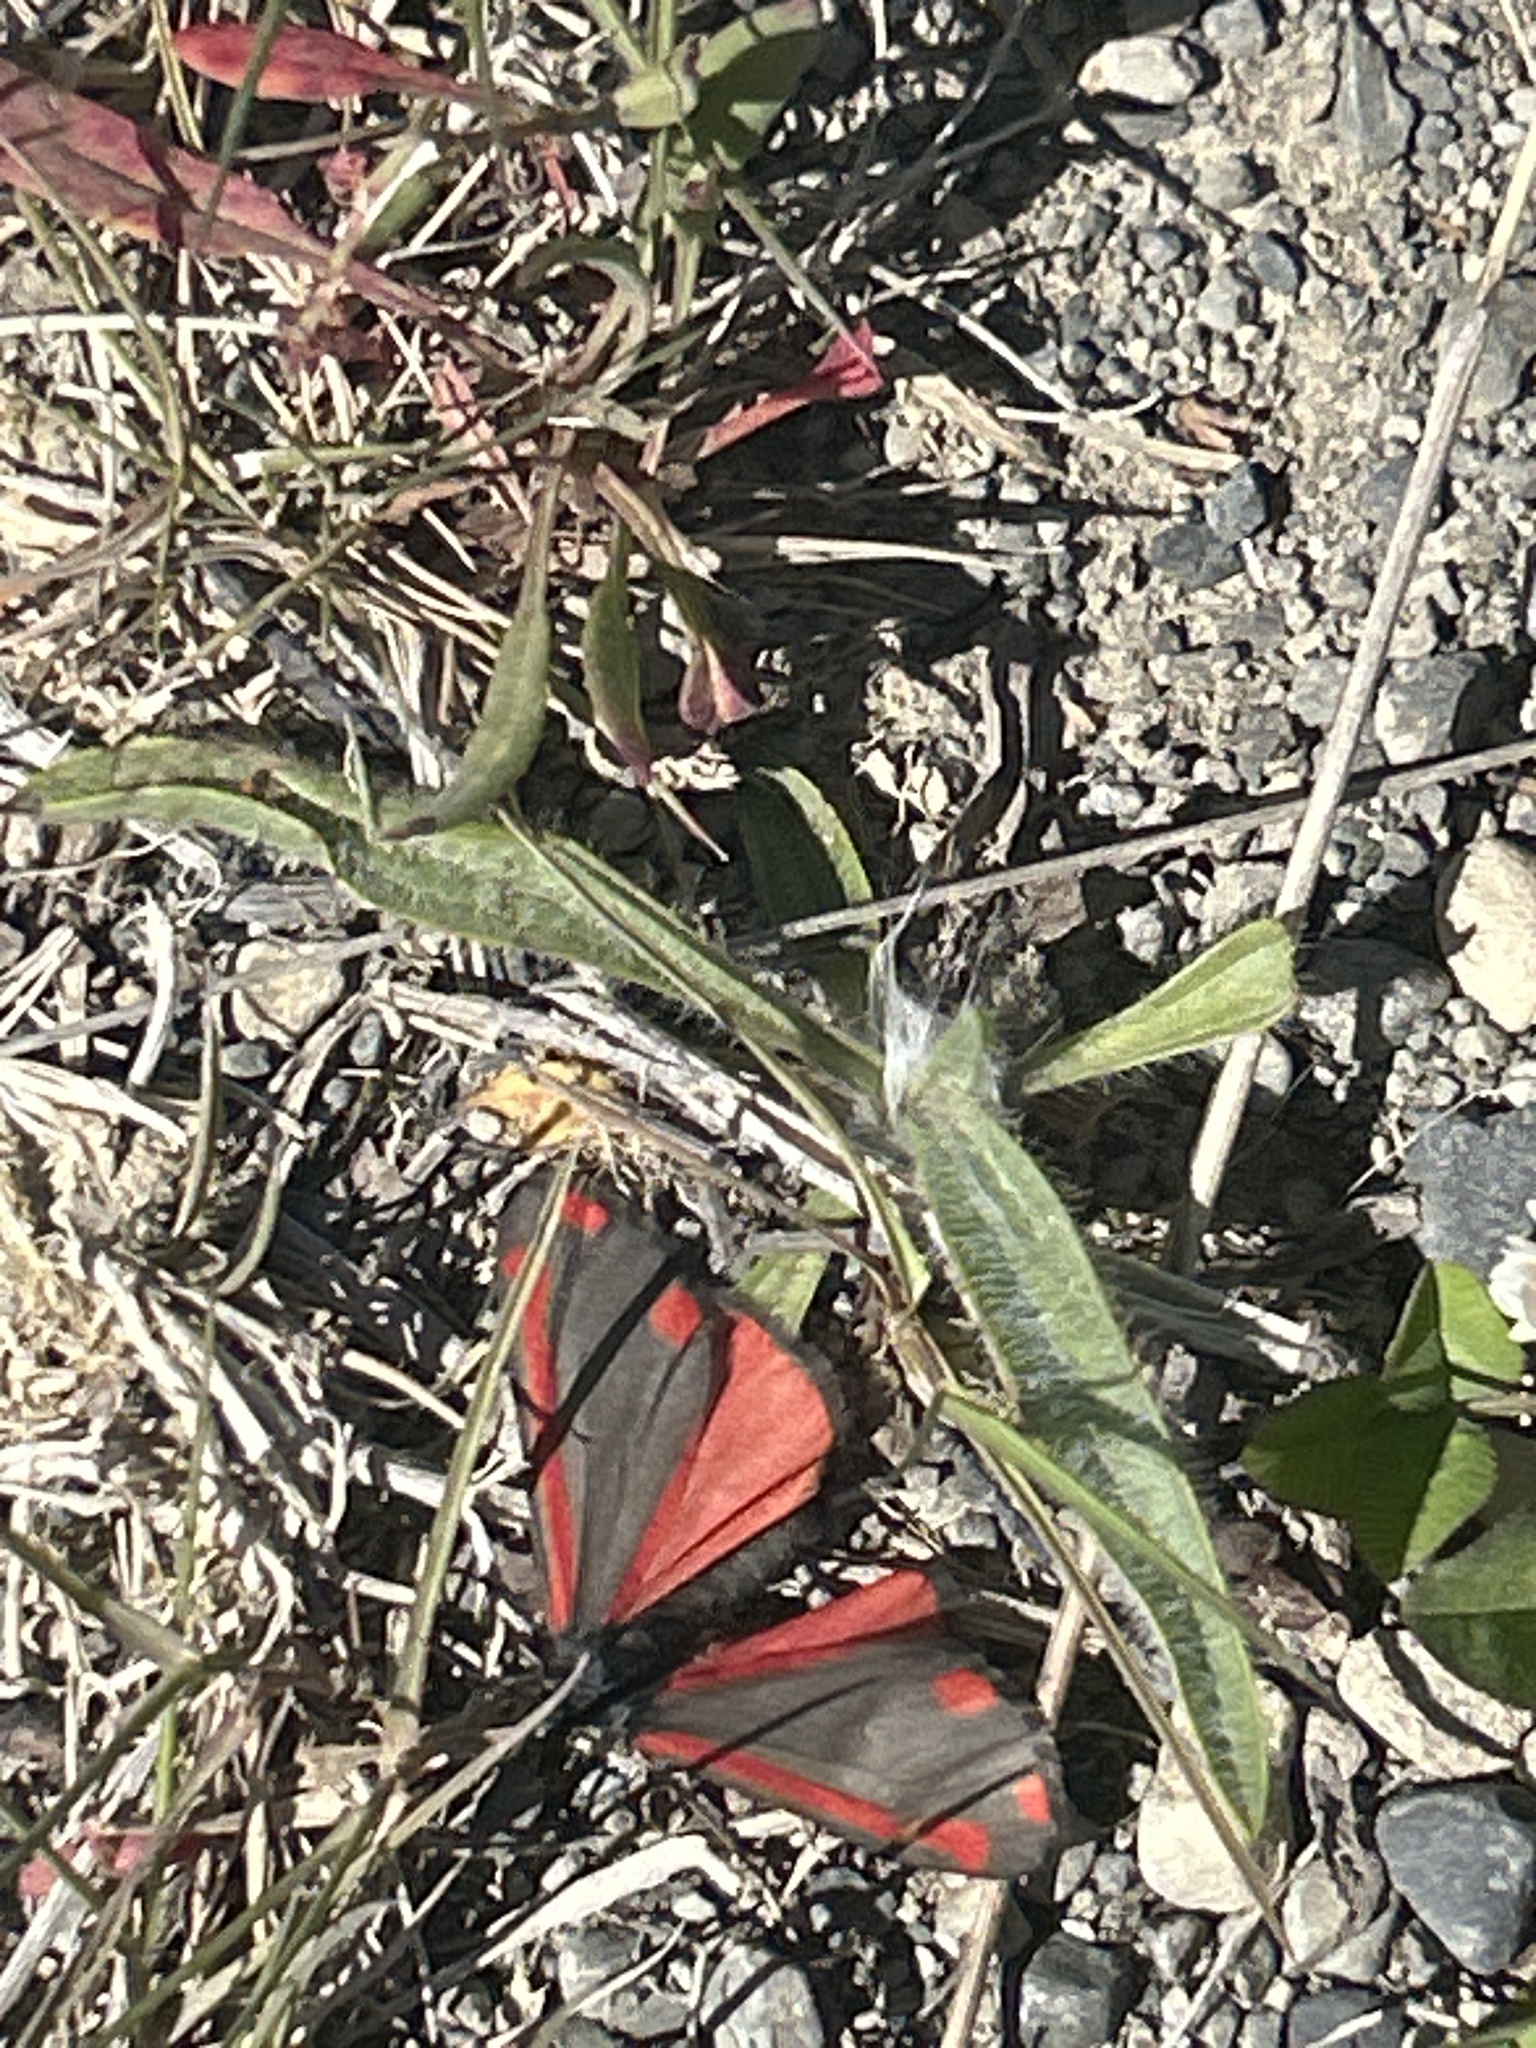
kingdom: Animalia
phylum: Arthropoda
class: Insecta
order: Lepidoptera
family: Erebidae
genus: Tyria
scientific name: Tyria jacobaeae
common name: Cinnabar
